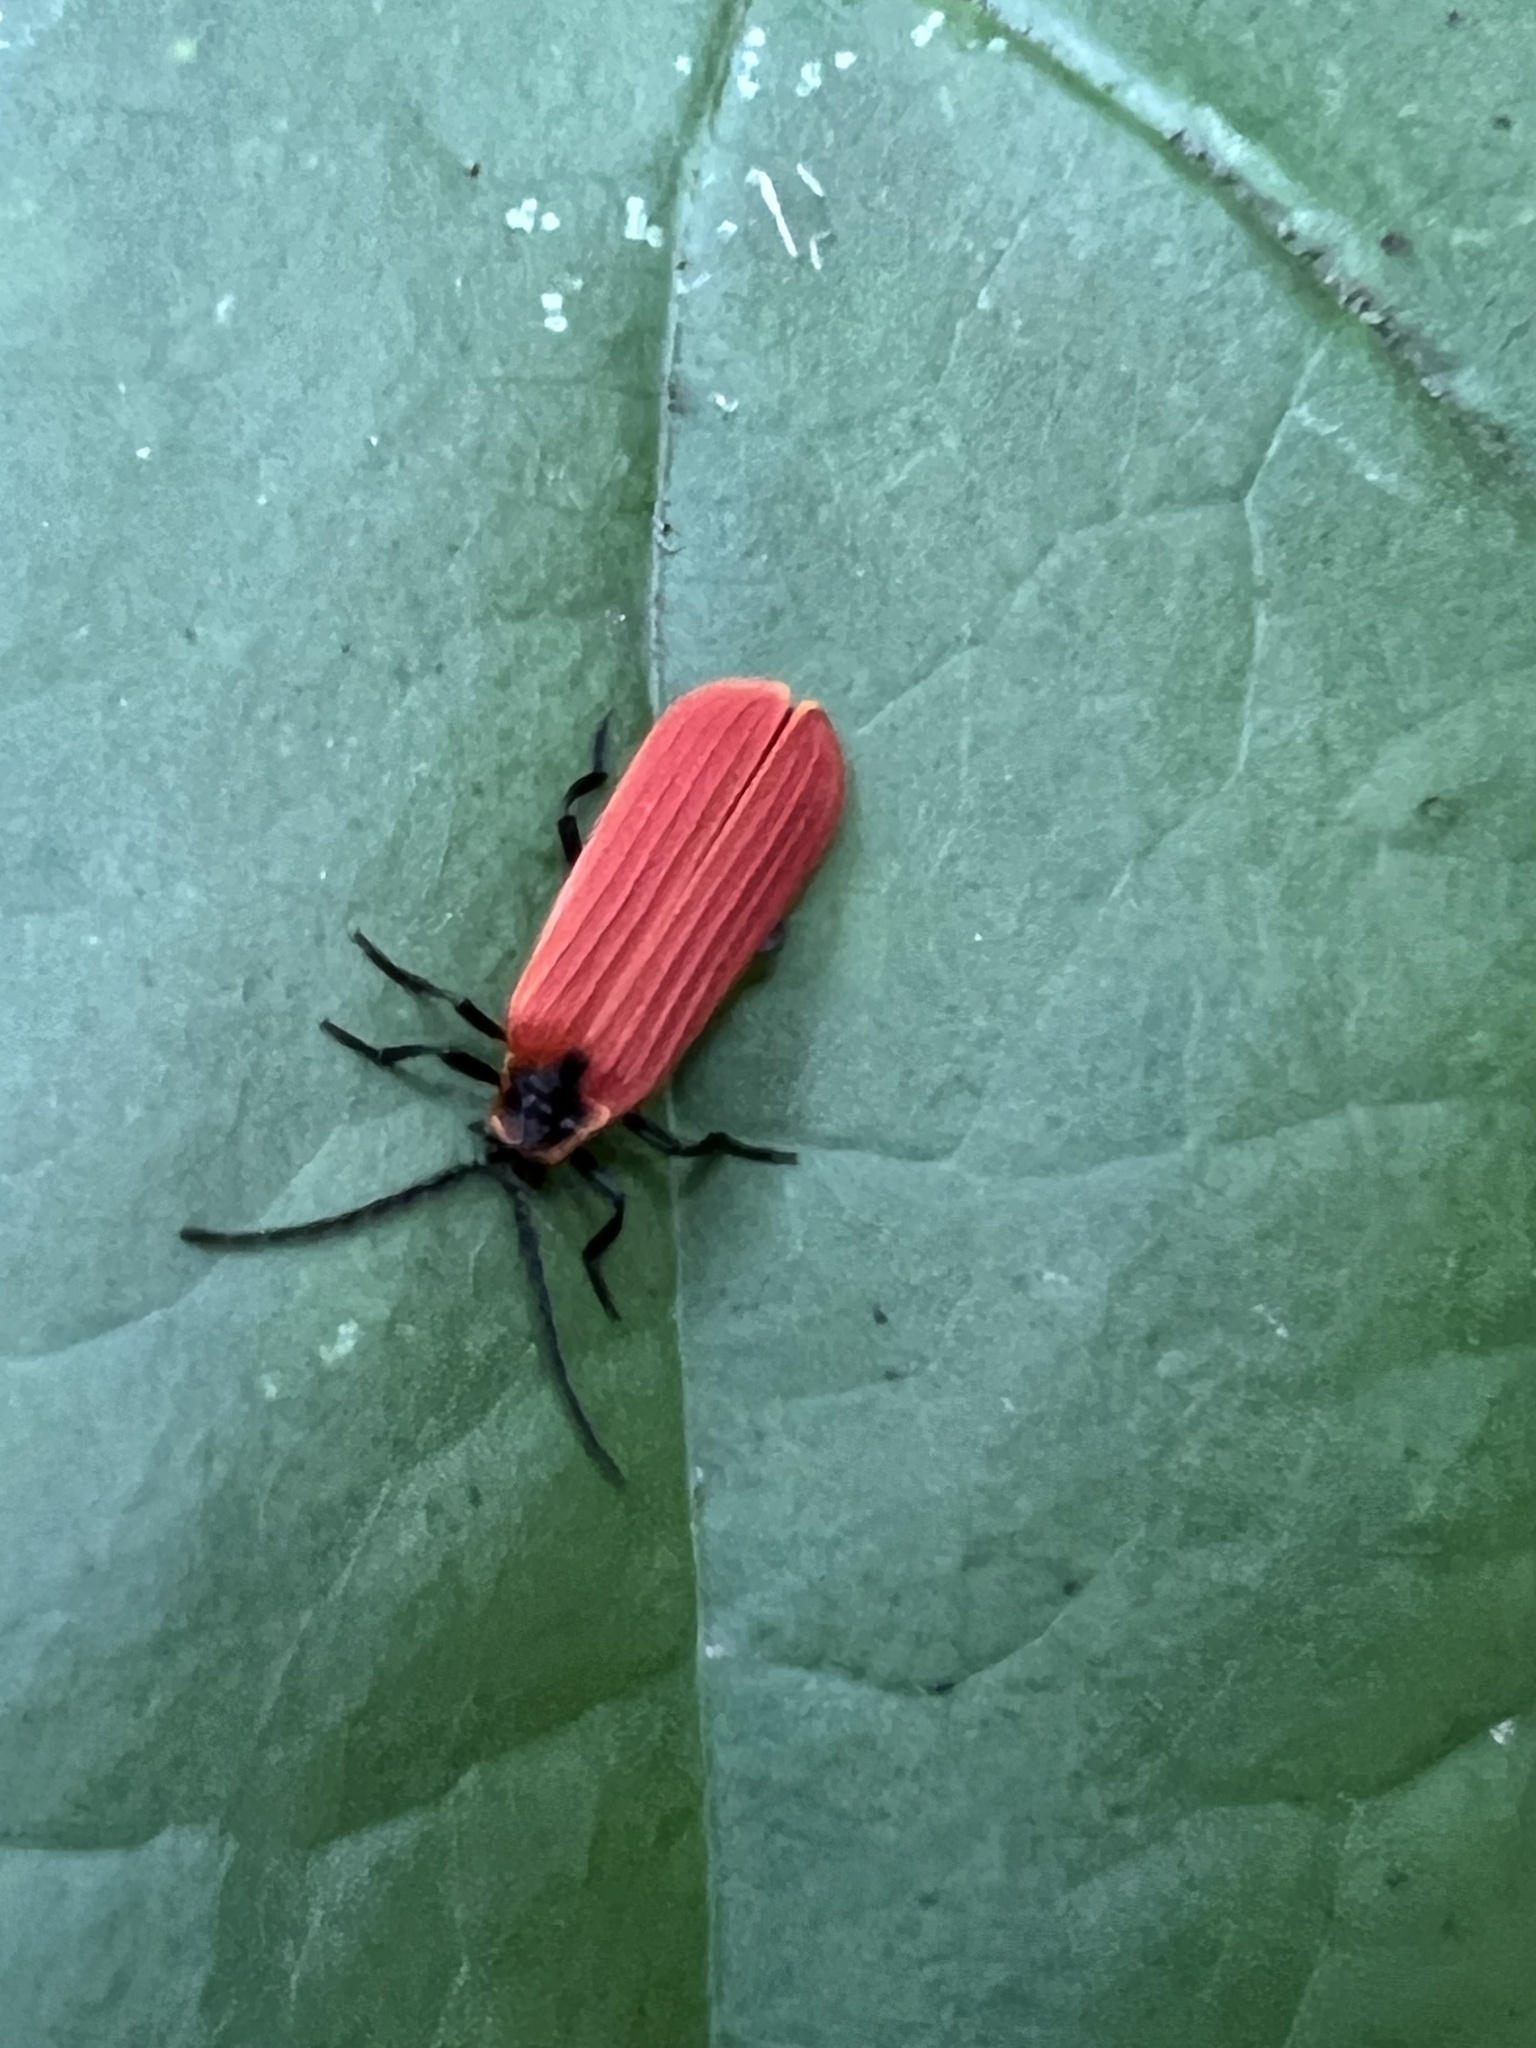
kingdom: Animalia
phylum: Arthropoda
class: Insecta
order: Coleoptera
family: Lycidae
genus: Dictyoptera
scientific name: Dictyoptera aurora
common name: Golden net-winged beetle
